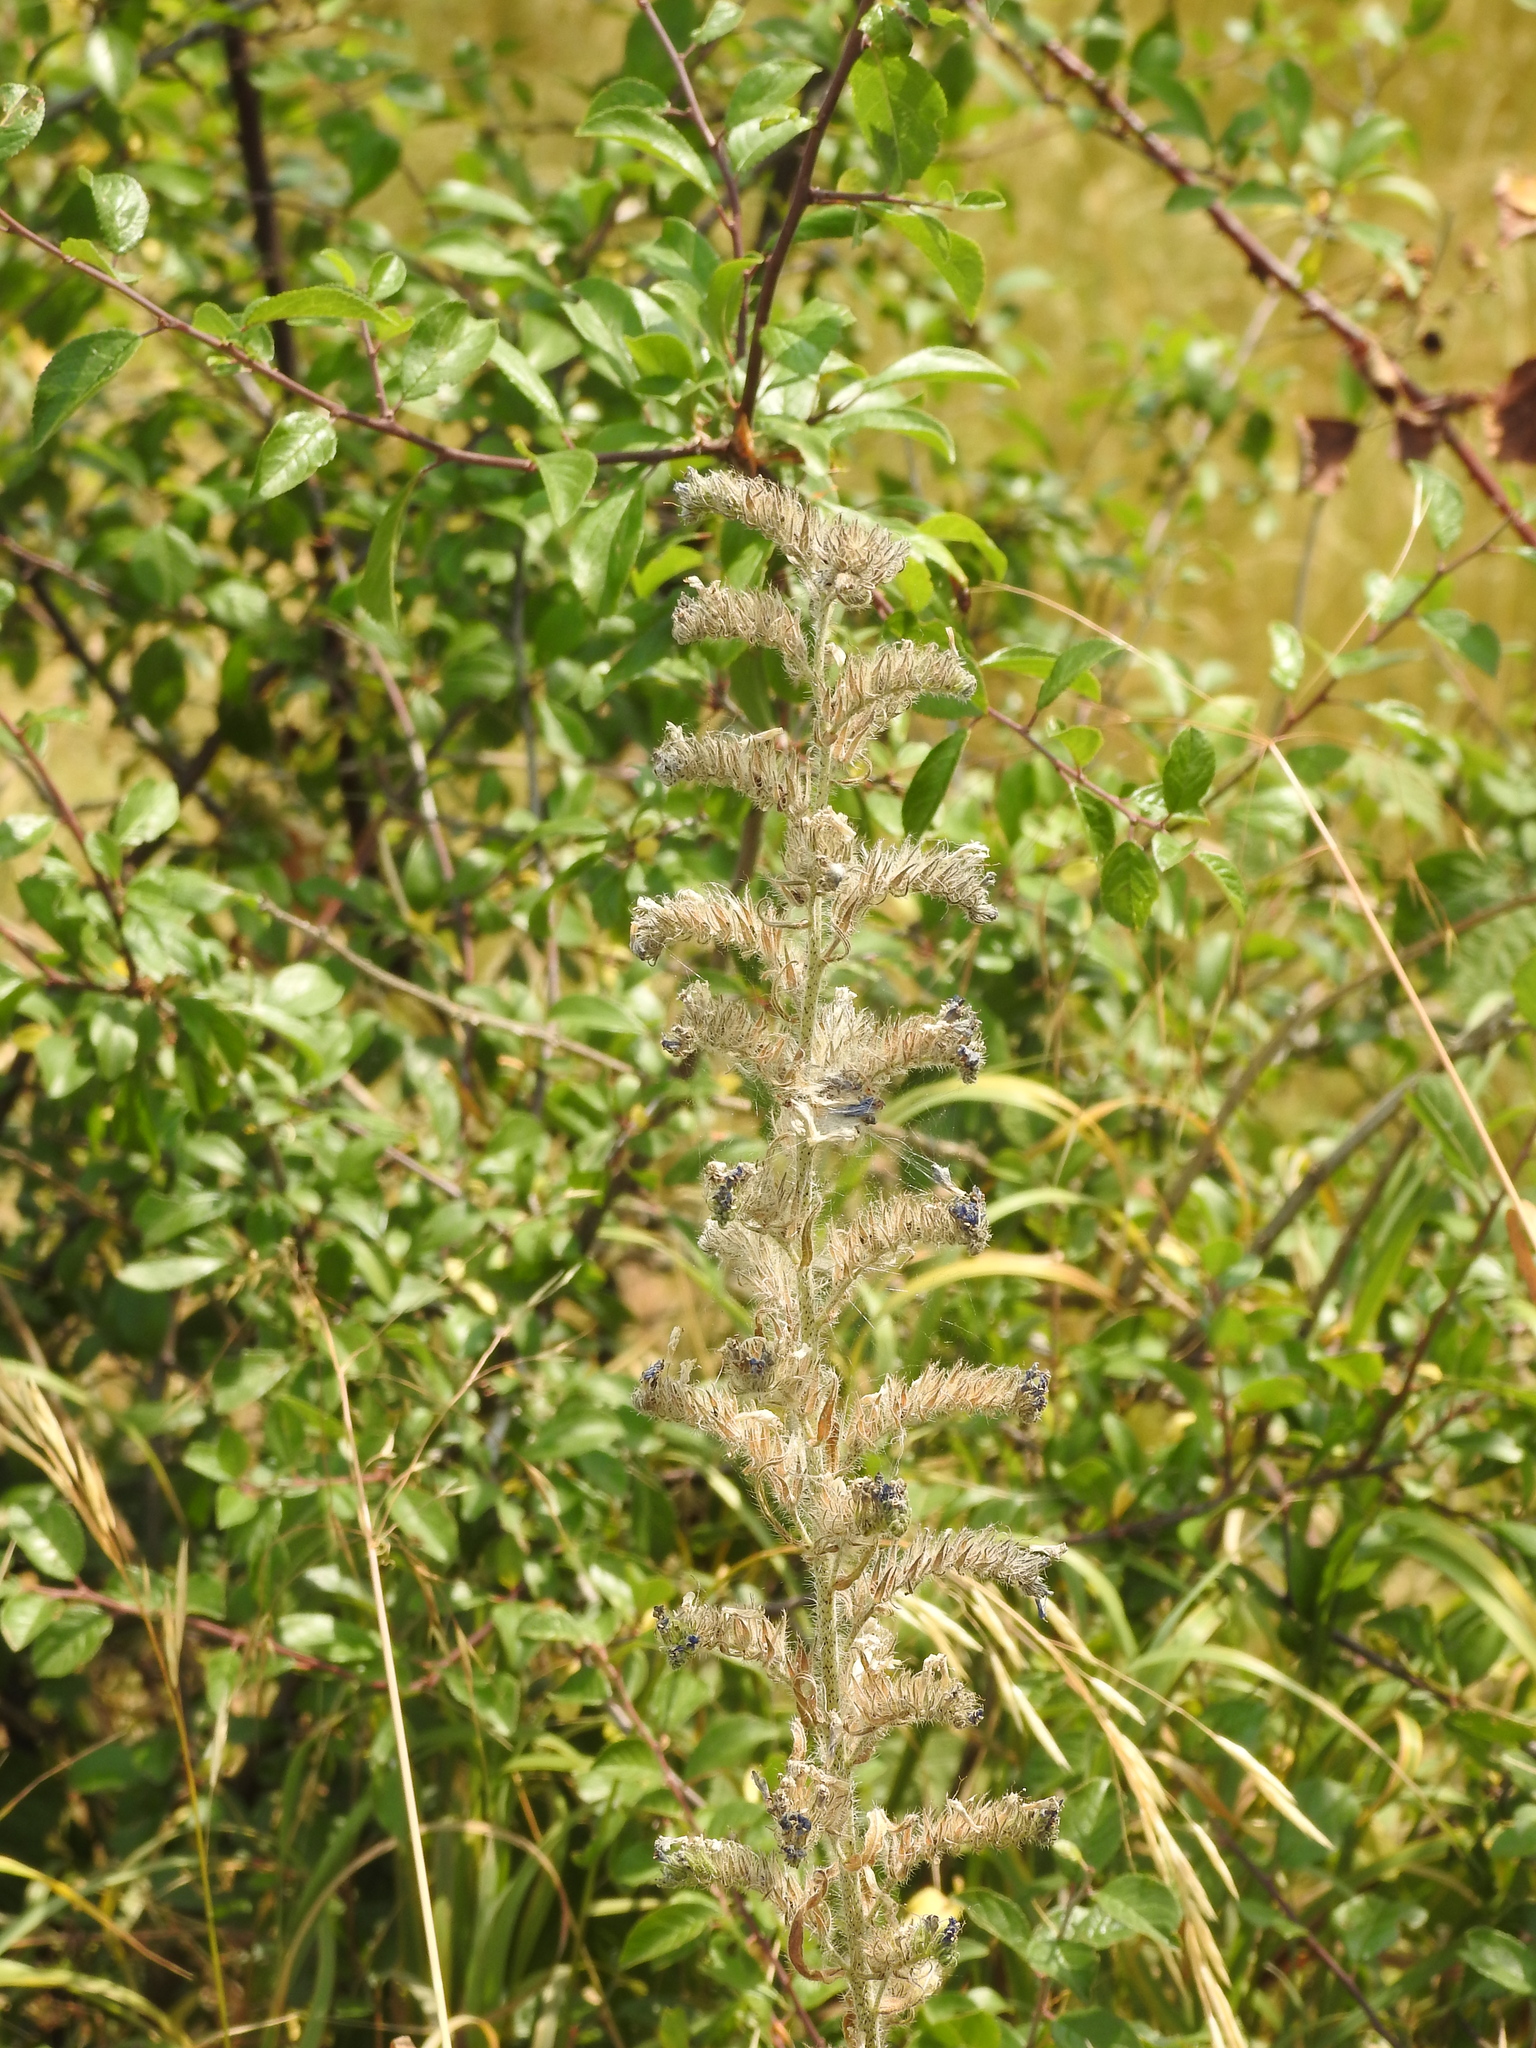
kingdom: Plantae
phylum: Tracheophyta
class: Magnoliopsida
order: Boraginales
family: Boraginaceae
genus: Echium
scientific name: Echium vulgare
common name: Common viper's bugloss
